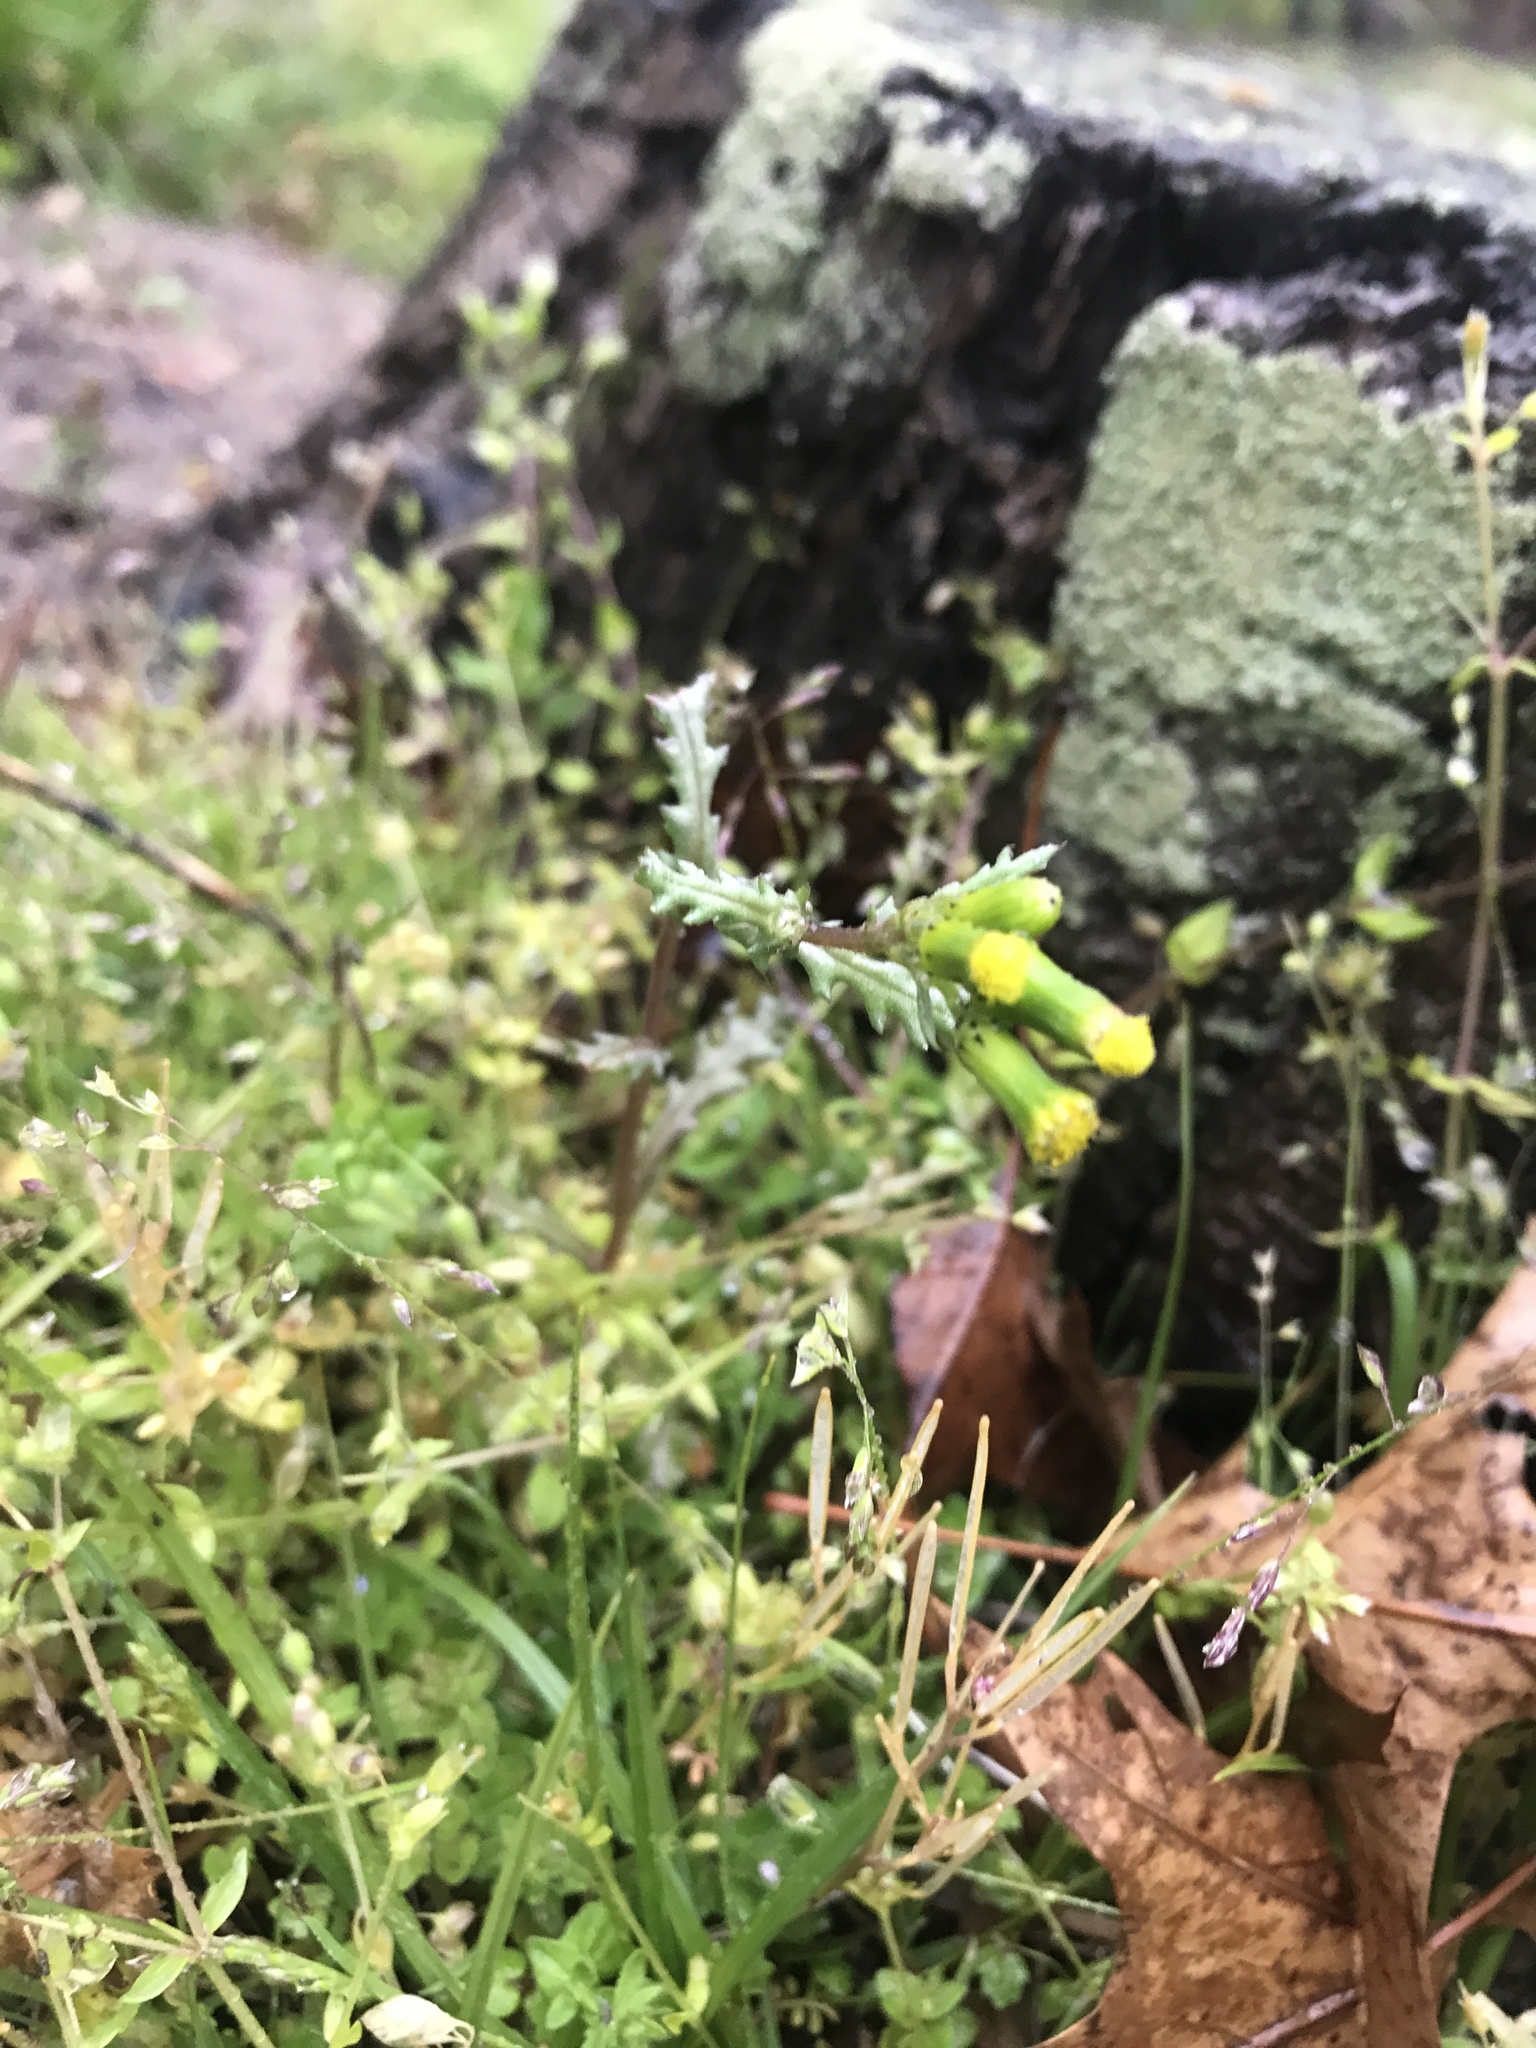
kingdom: Plantae
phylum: Tracheophyta
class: Magnoliopsida
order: Asterales
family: Asteraceae
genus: Senecio
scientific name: Senecio vulgaris
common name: Old-man-in-the-spring
